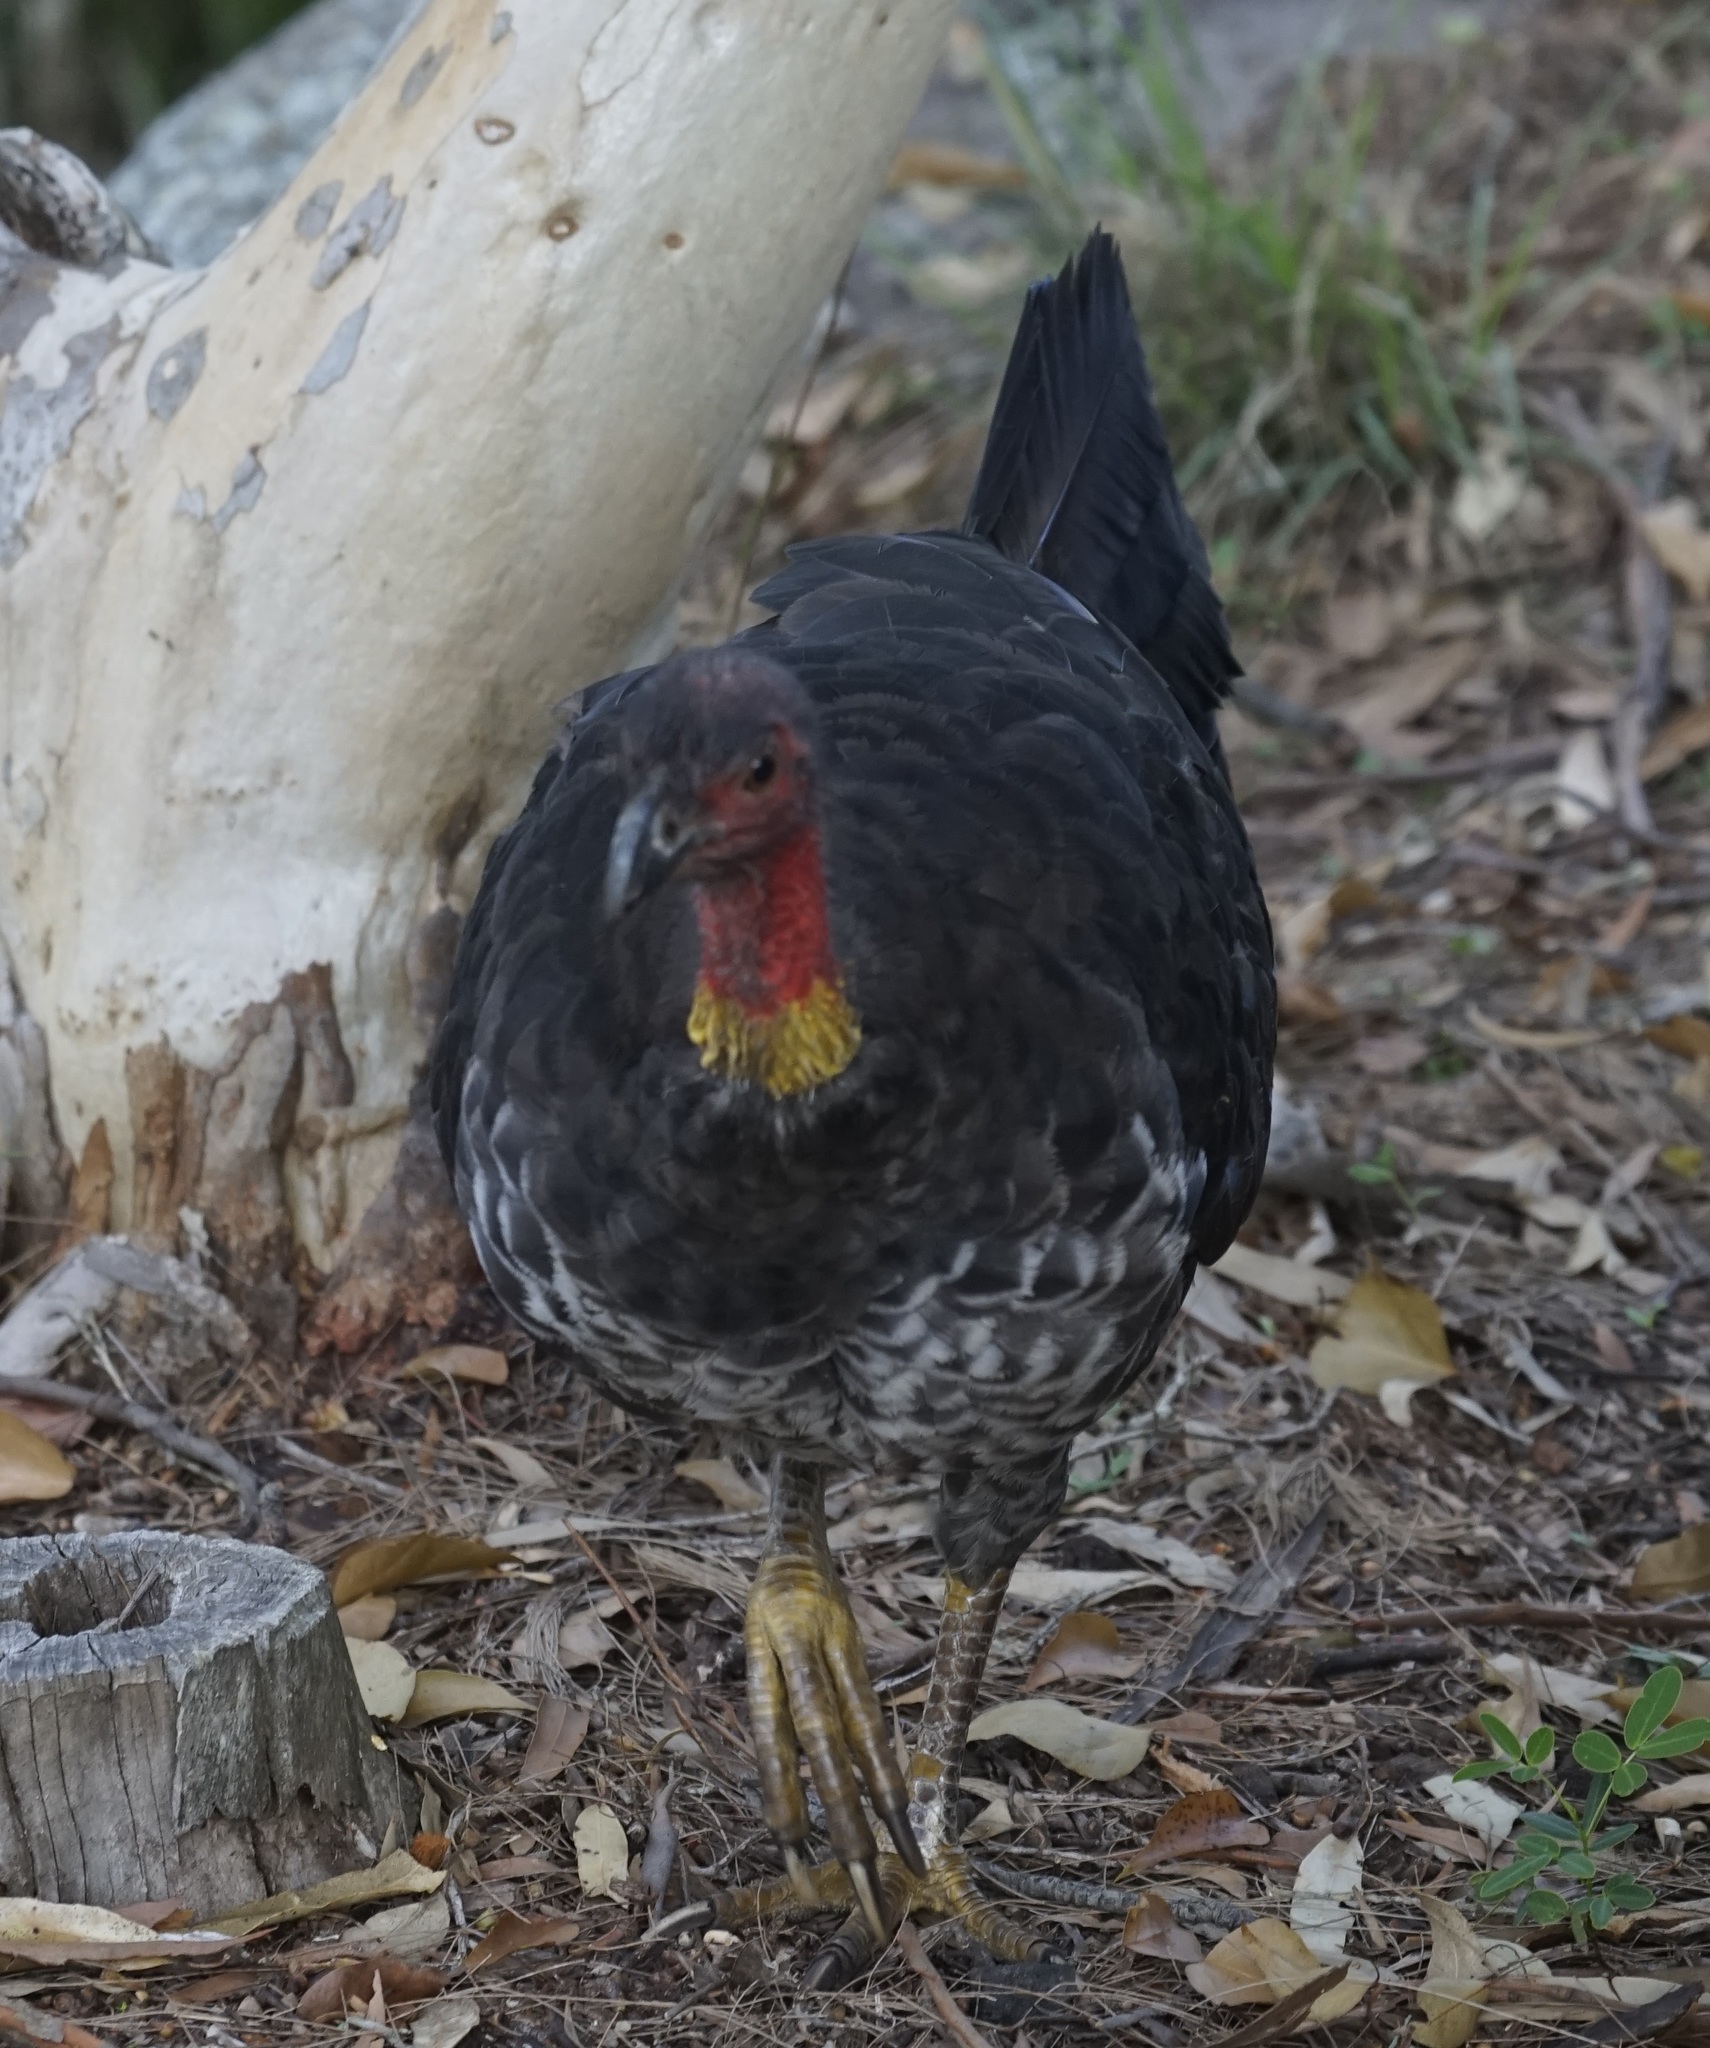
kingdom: Animalia
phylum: Chordata
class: Aves
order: Galliformes
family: Megapodiidae
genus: Alectura
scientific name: Alectura lathami
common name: Australian brushturkey
